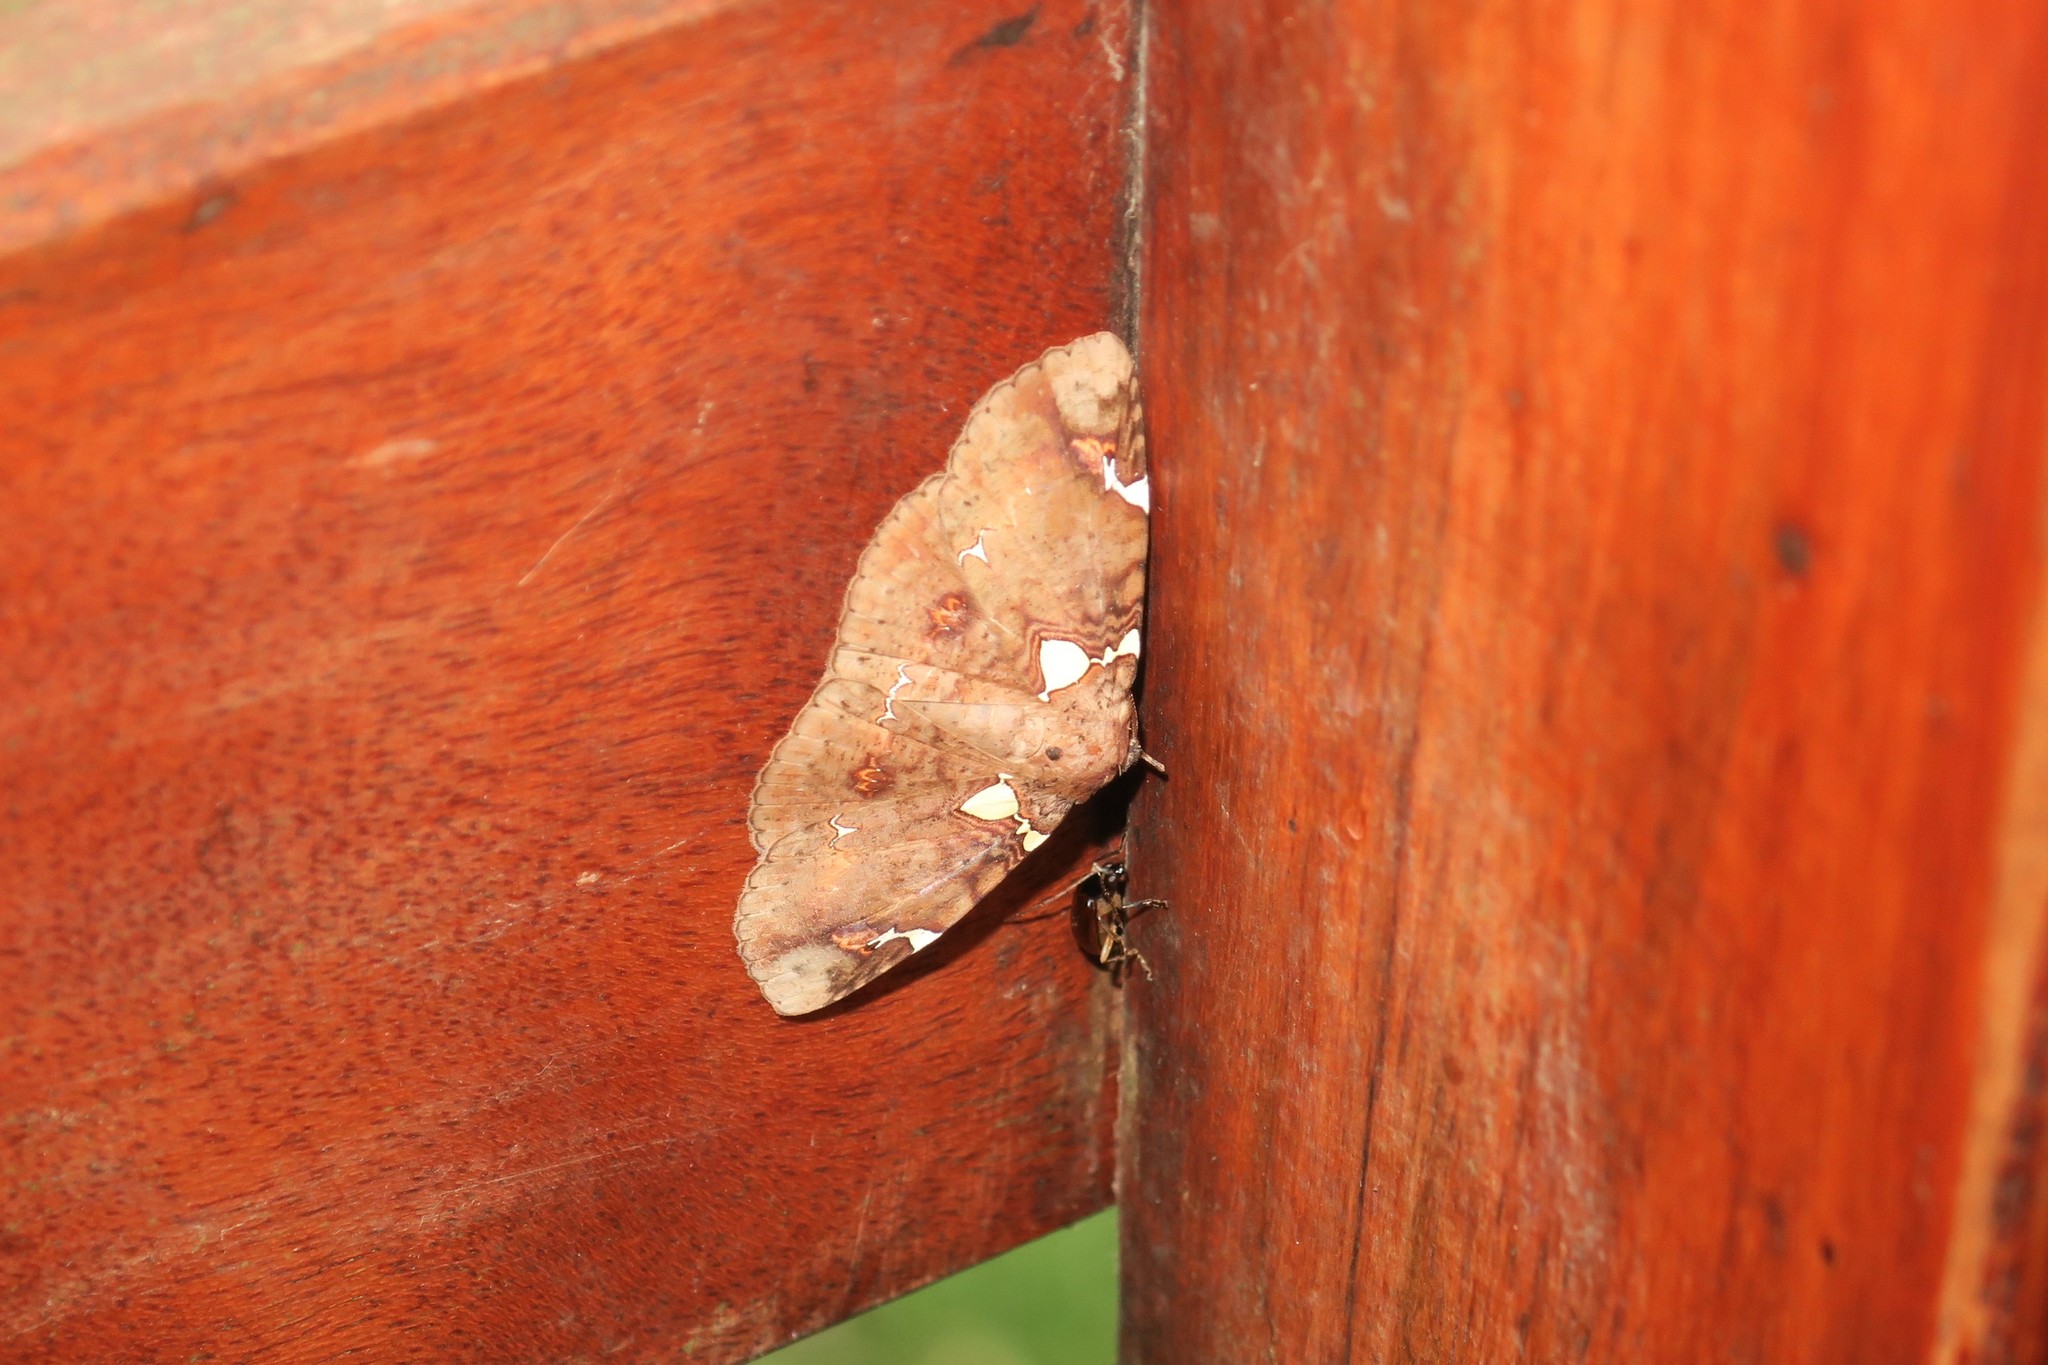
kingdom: Animalia
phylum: Arthropoda
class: Insecta
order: Lepidoptera
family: Erebidae
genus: Antiblemma
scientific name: Antiblemma albipunctata
